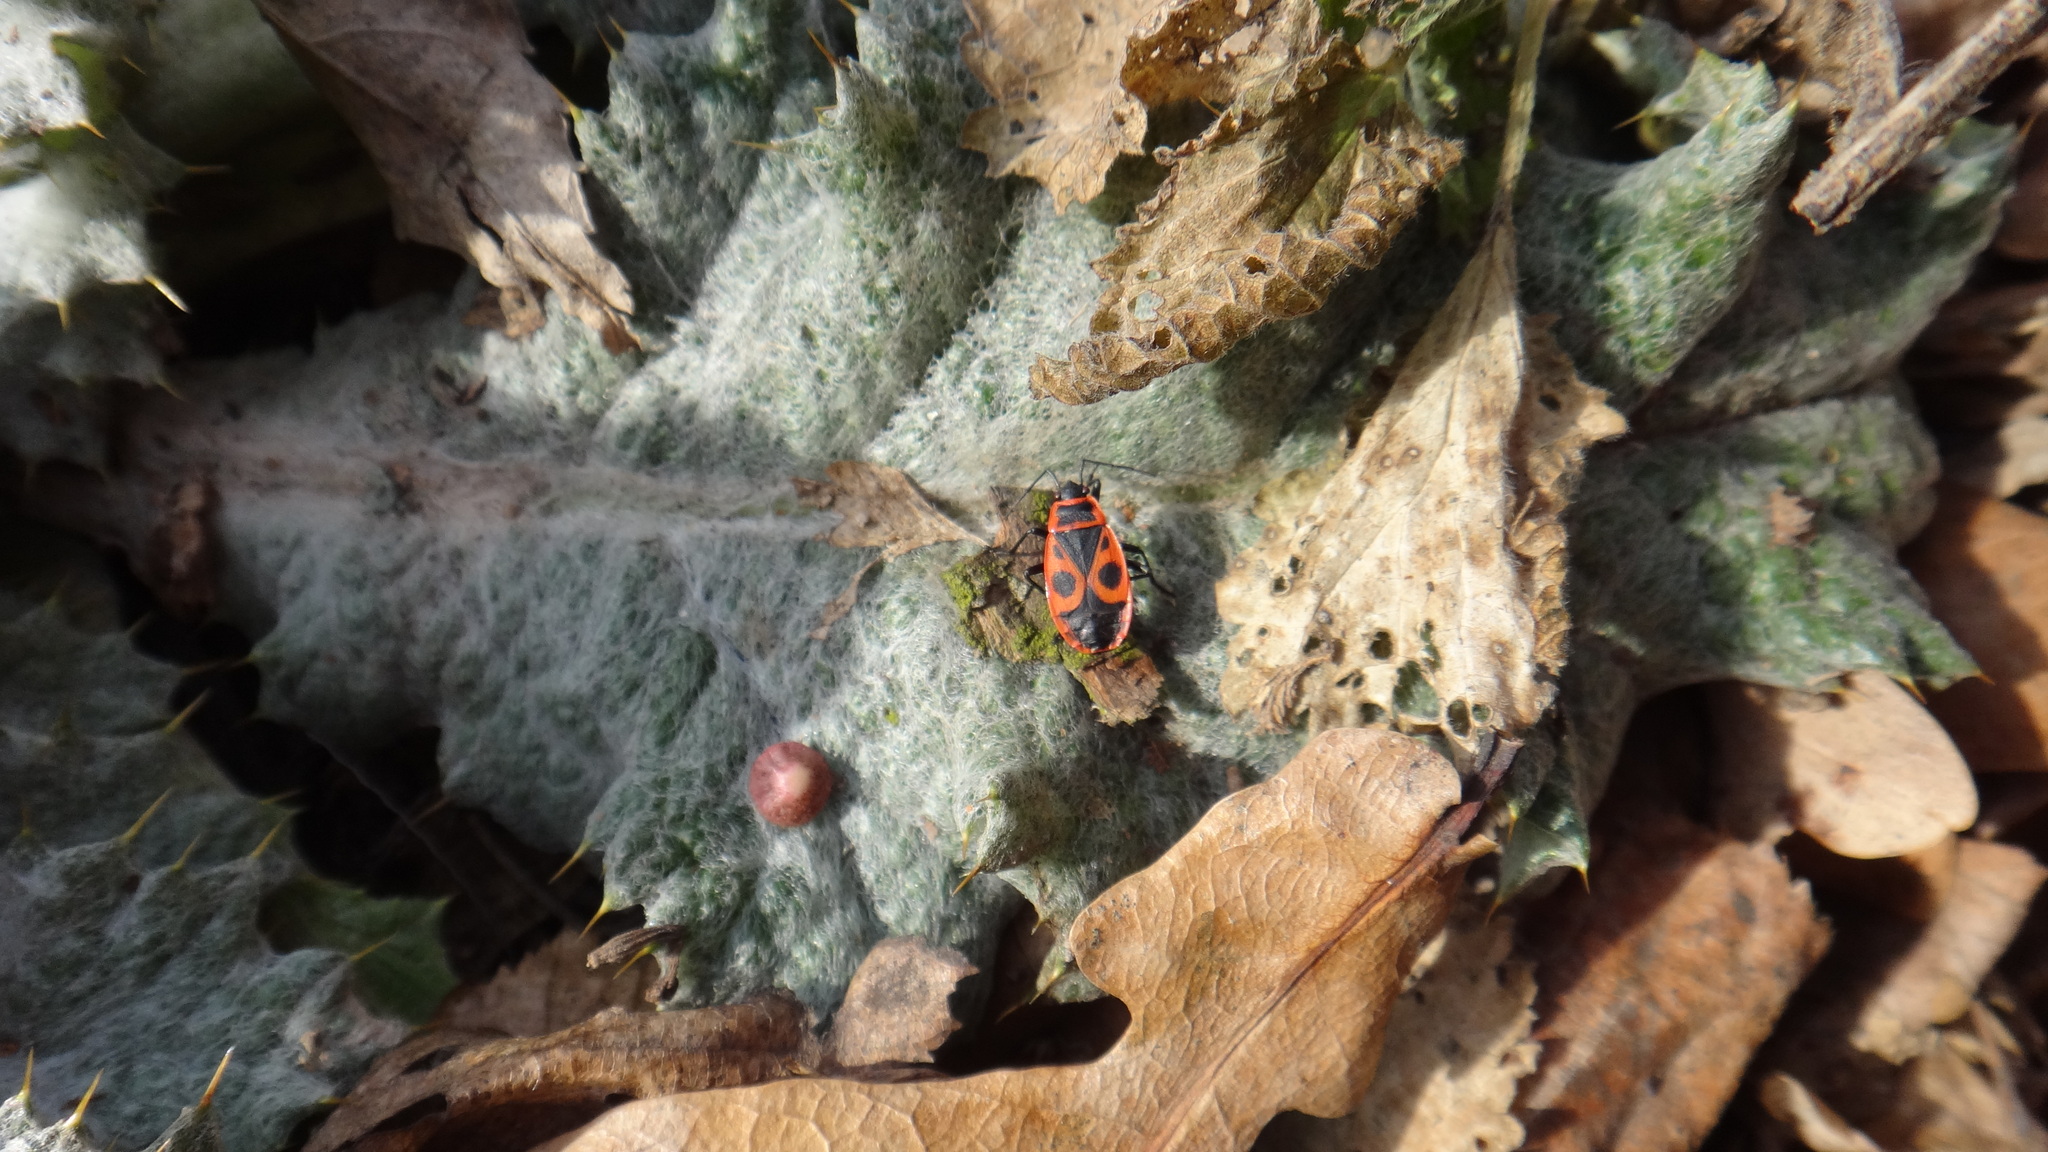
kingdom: Animalia
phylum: Arthropoda
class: Insecta
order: Hemiptera
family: Pyrrhocoridae
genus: Pyrrhocoris
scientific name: Pyrrhocoris apterus
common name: Firebug
